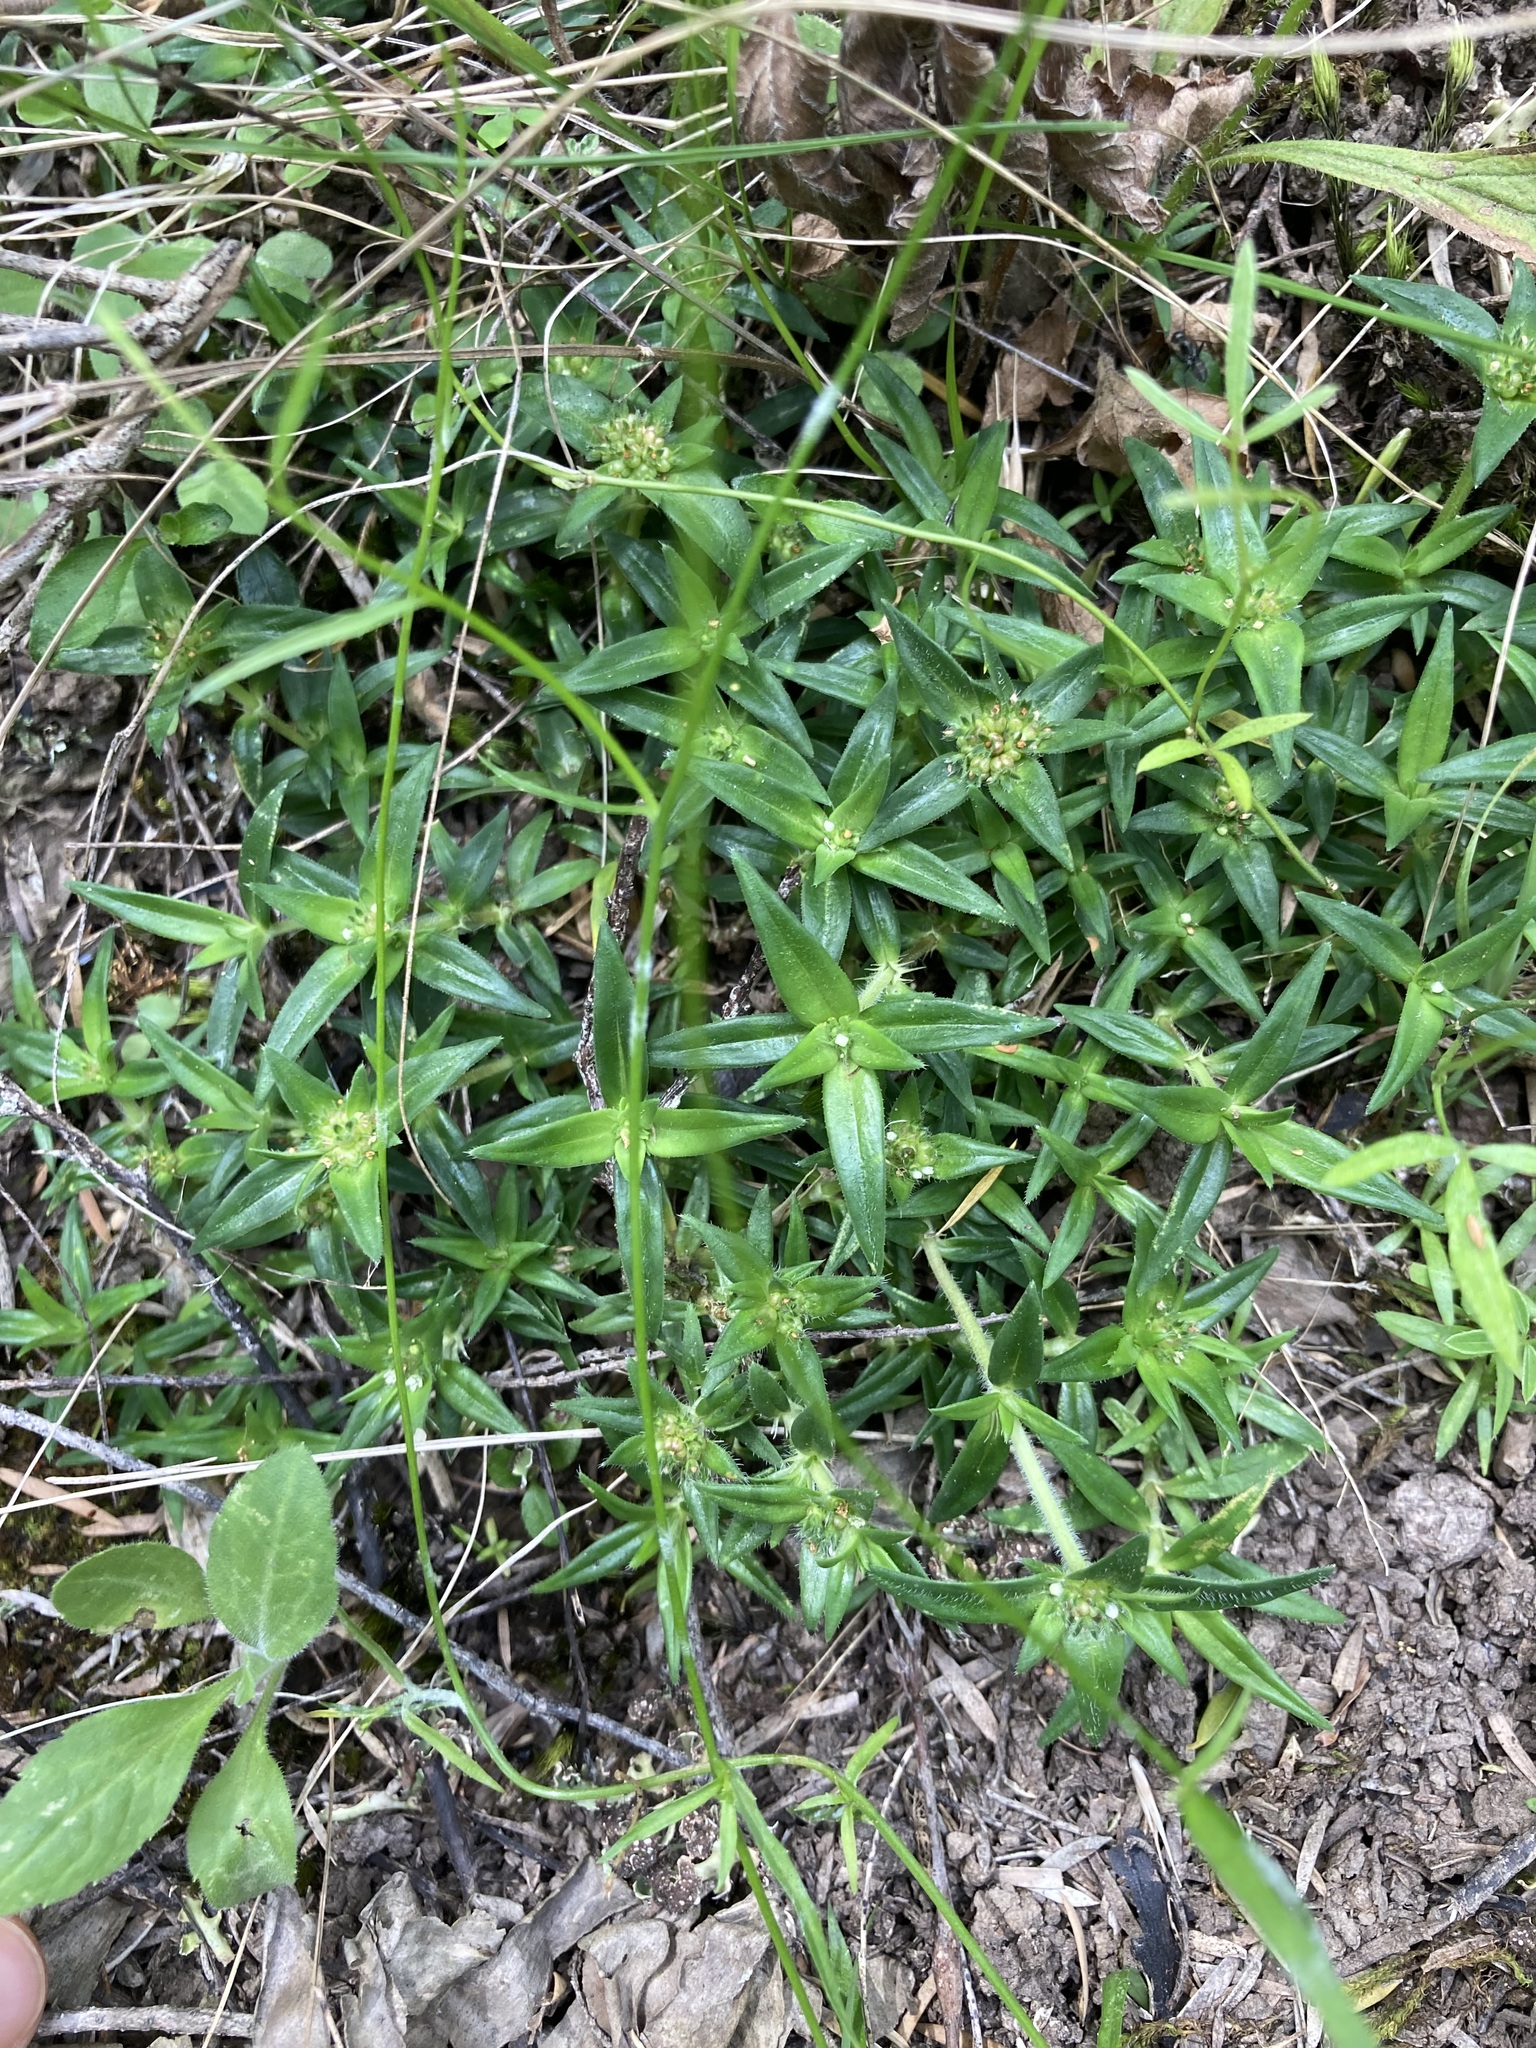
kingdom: Plantae
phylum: Tracheophyta
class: Magnoliopsida
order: Gentianales
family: Rubiaceae
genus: Richardia
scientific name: Richardia stellaris
